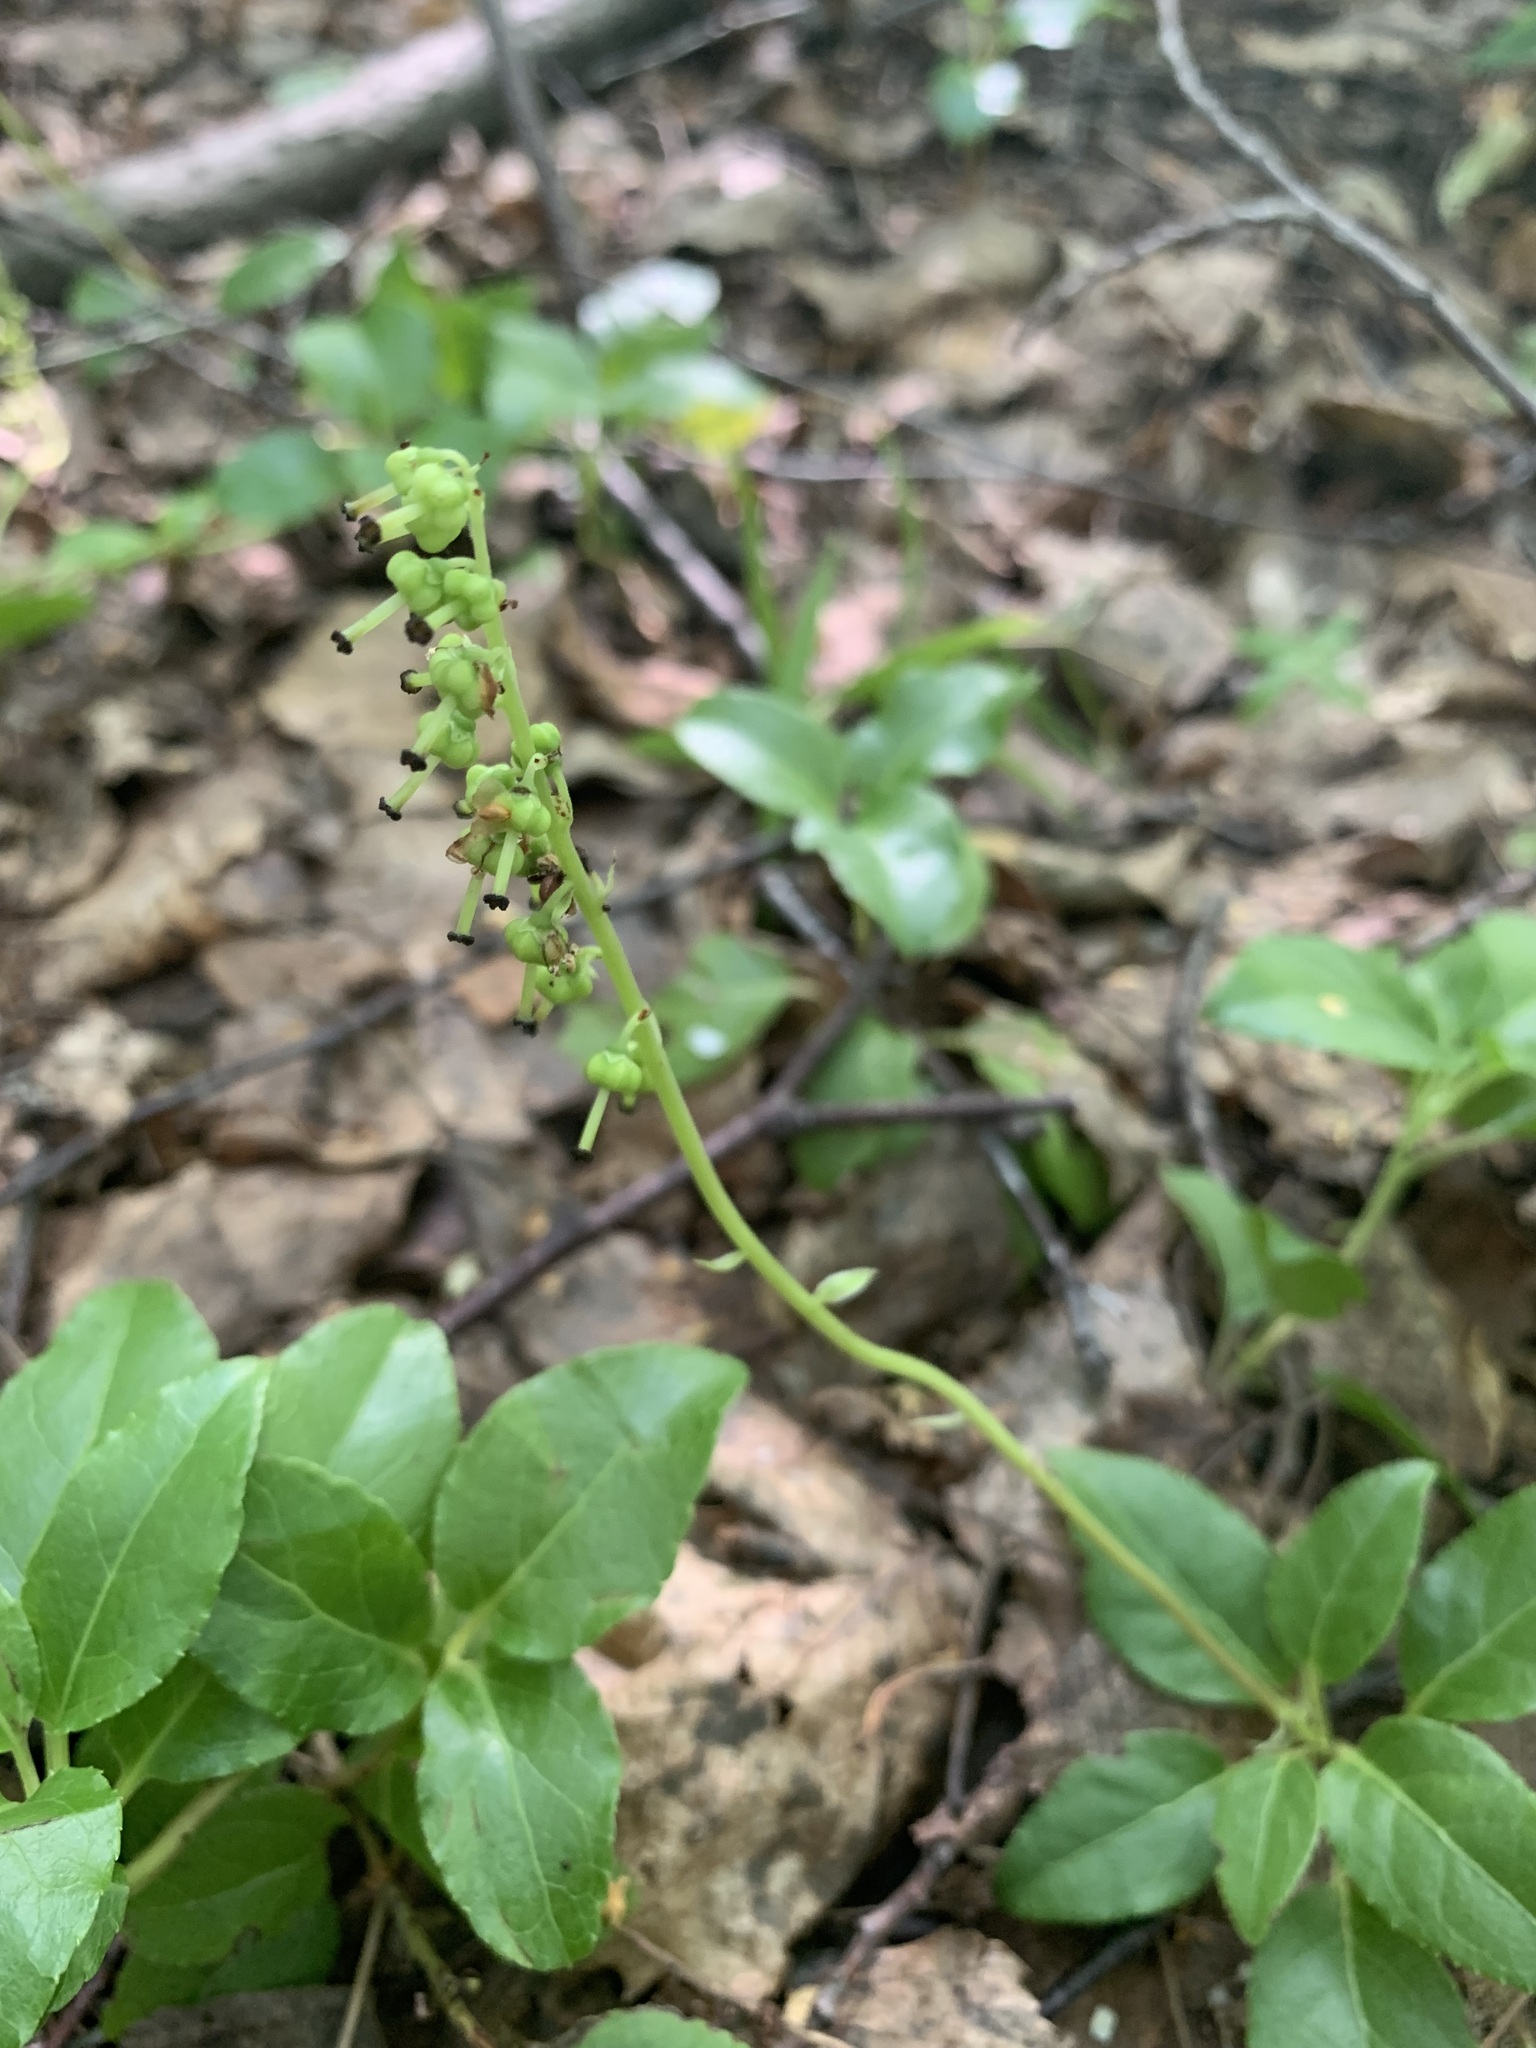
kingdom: Plantae
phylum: Tracheophyta
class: Magnoliopsida
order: Ericales
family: Ericaceae
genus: Orthilia
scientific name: Orthilia secunda
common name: One-sided orthilia
